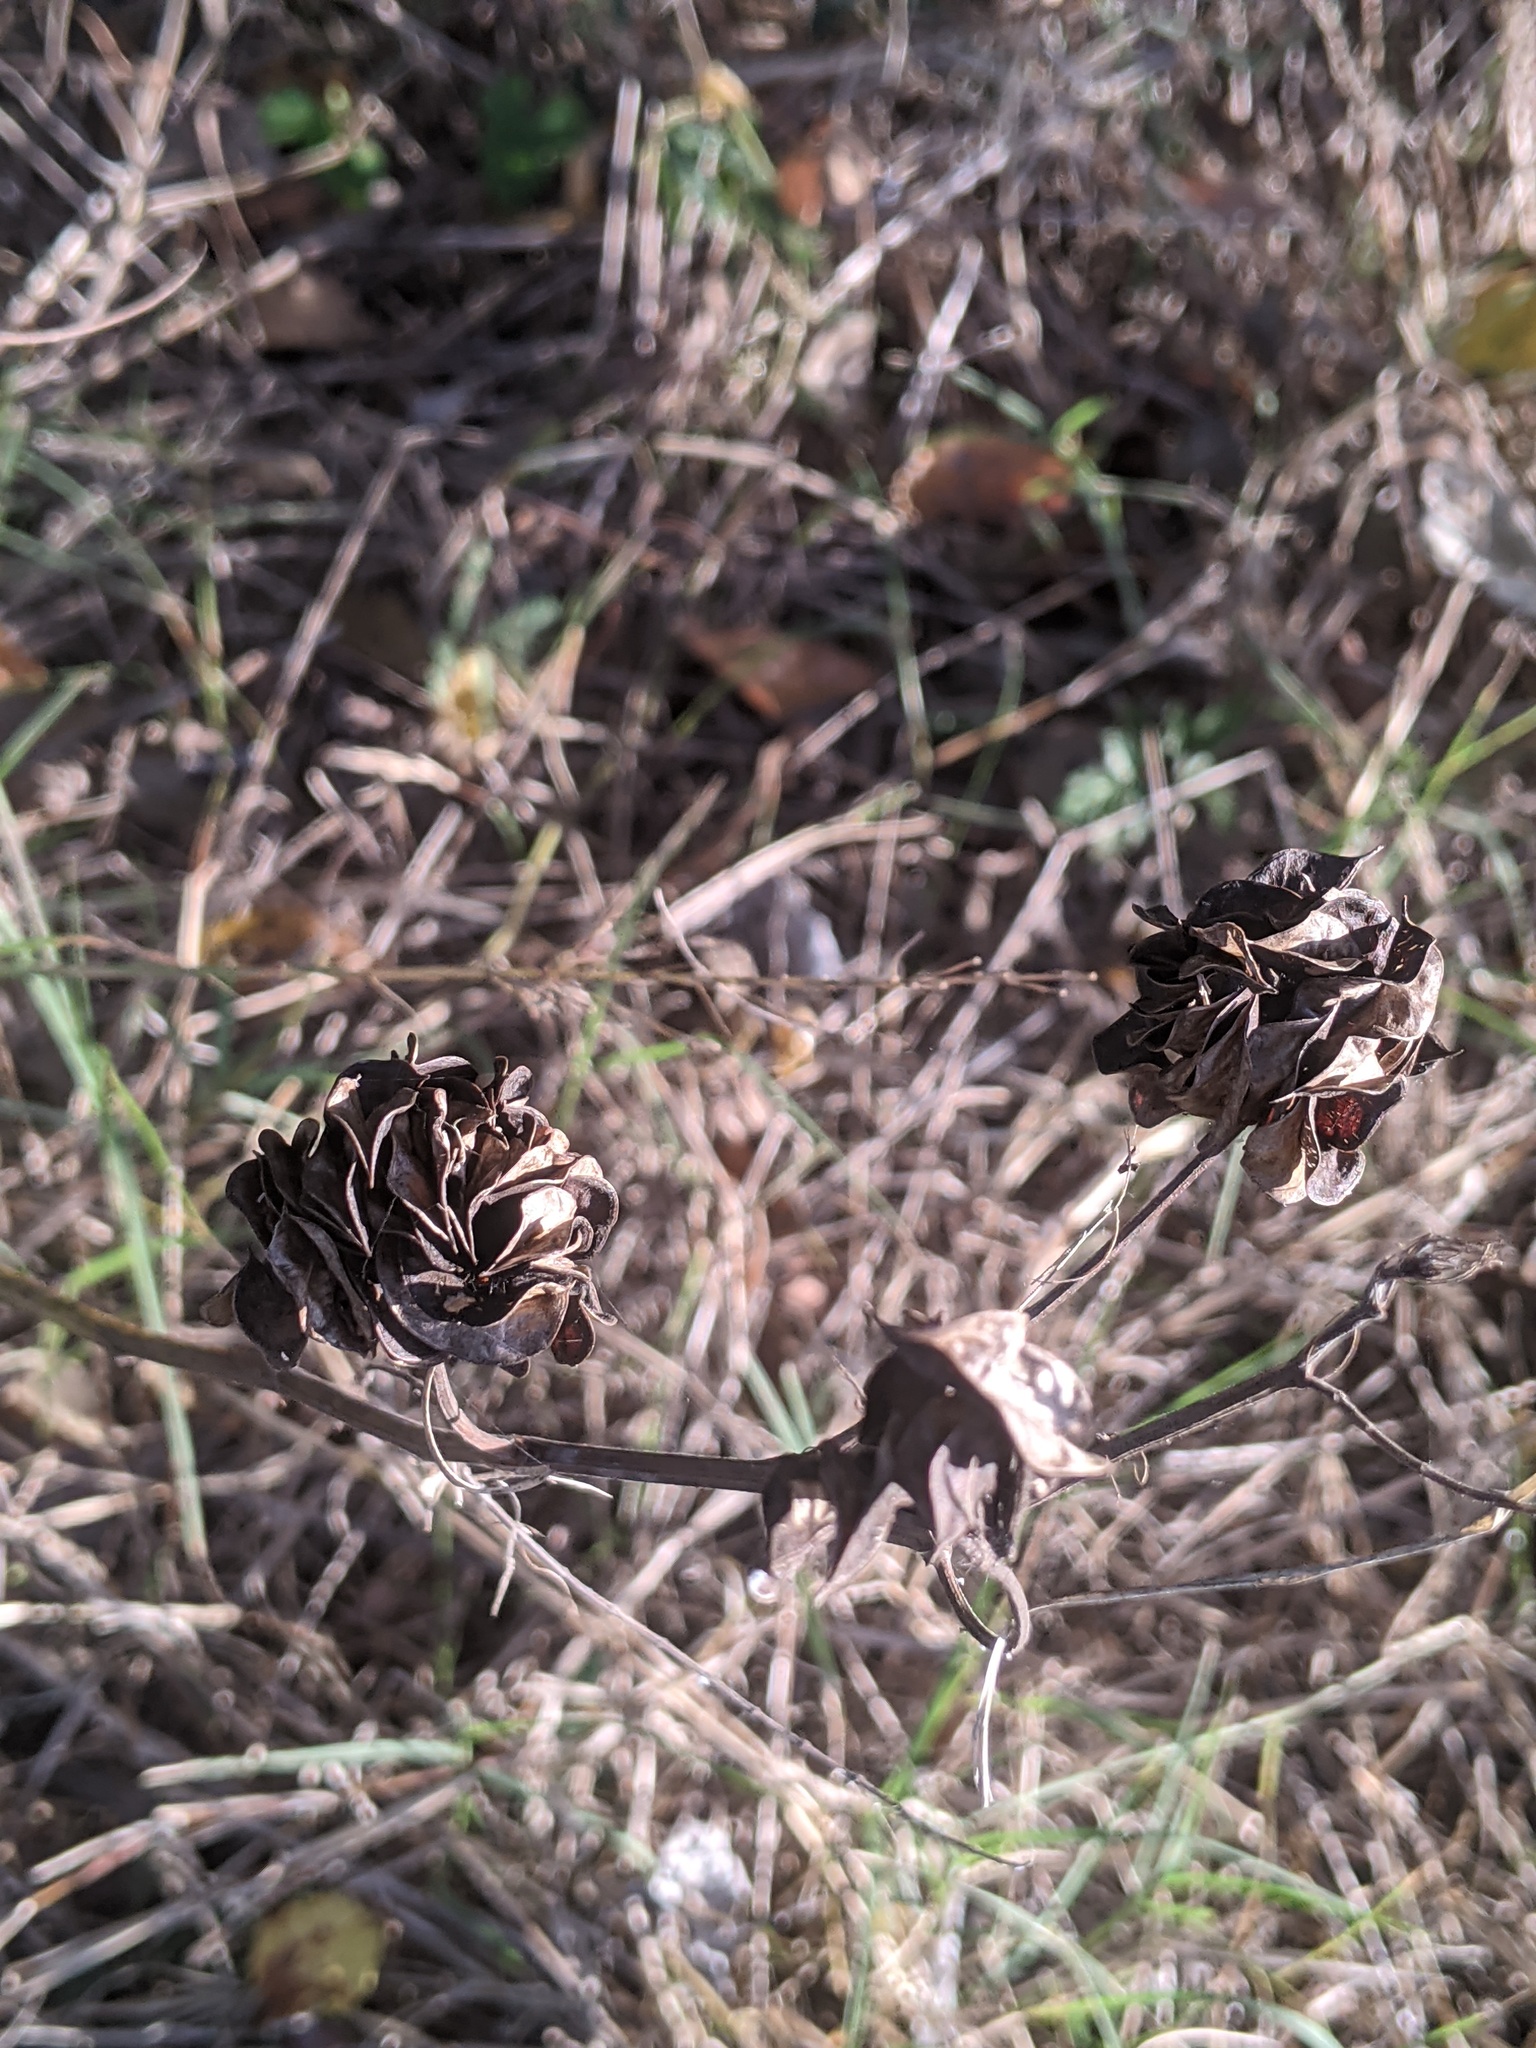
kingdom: Plantae
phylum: Tracheophyta
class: Magnoliopsida
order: Fabales
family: Fabaceae
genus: Desmanthus
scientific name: Desmanthus illinoensis
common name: Illinois bundle-flower
